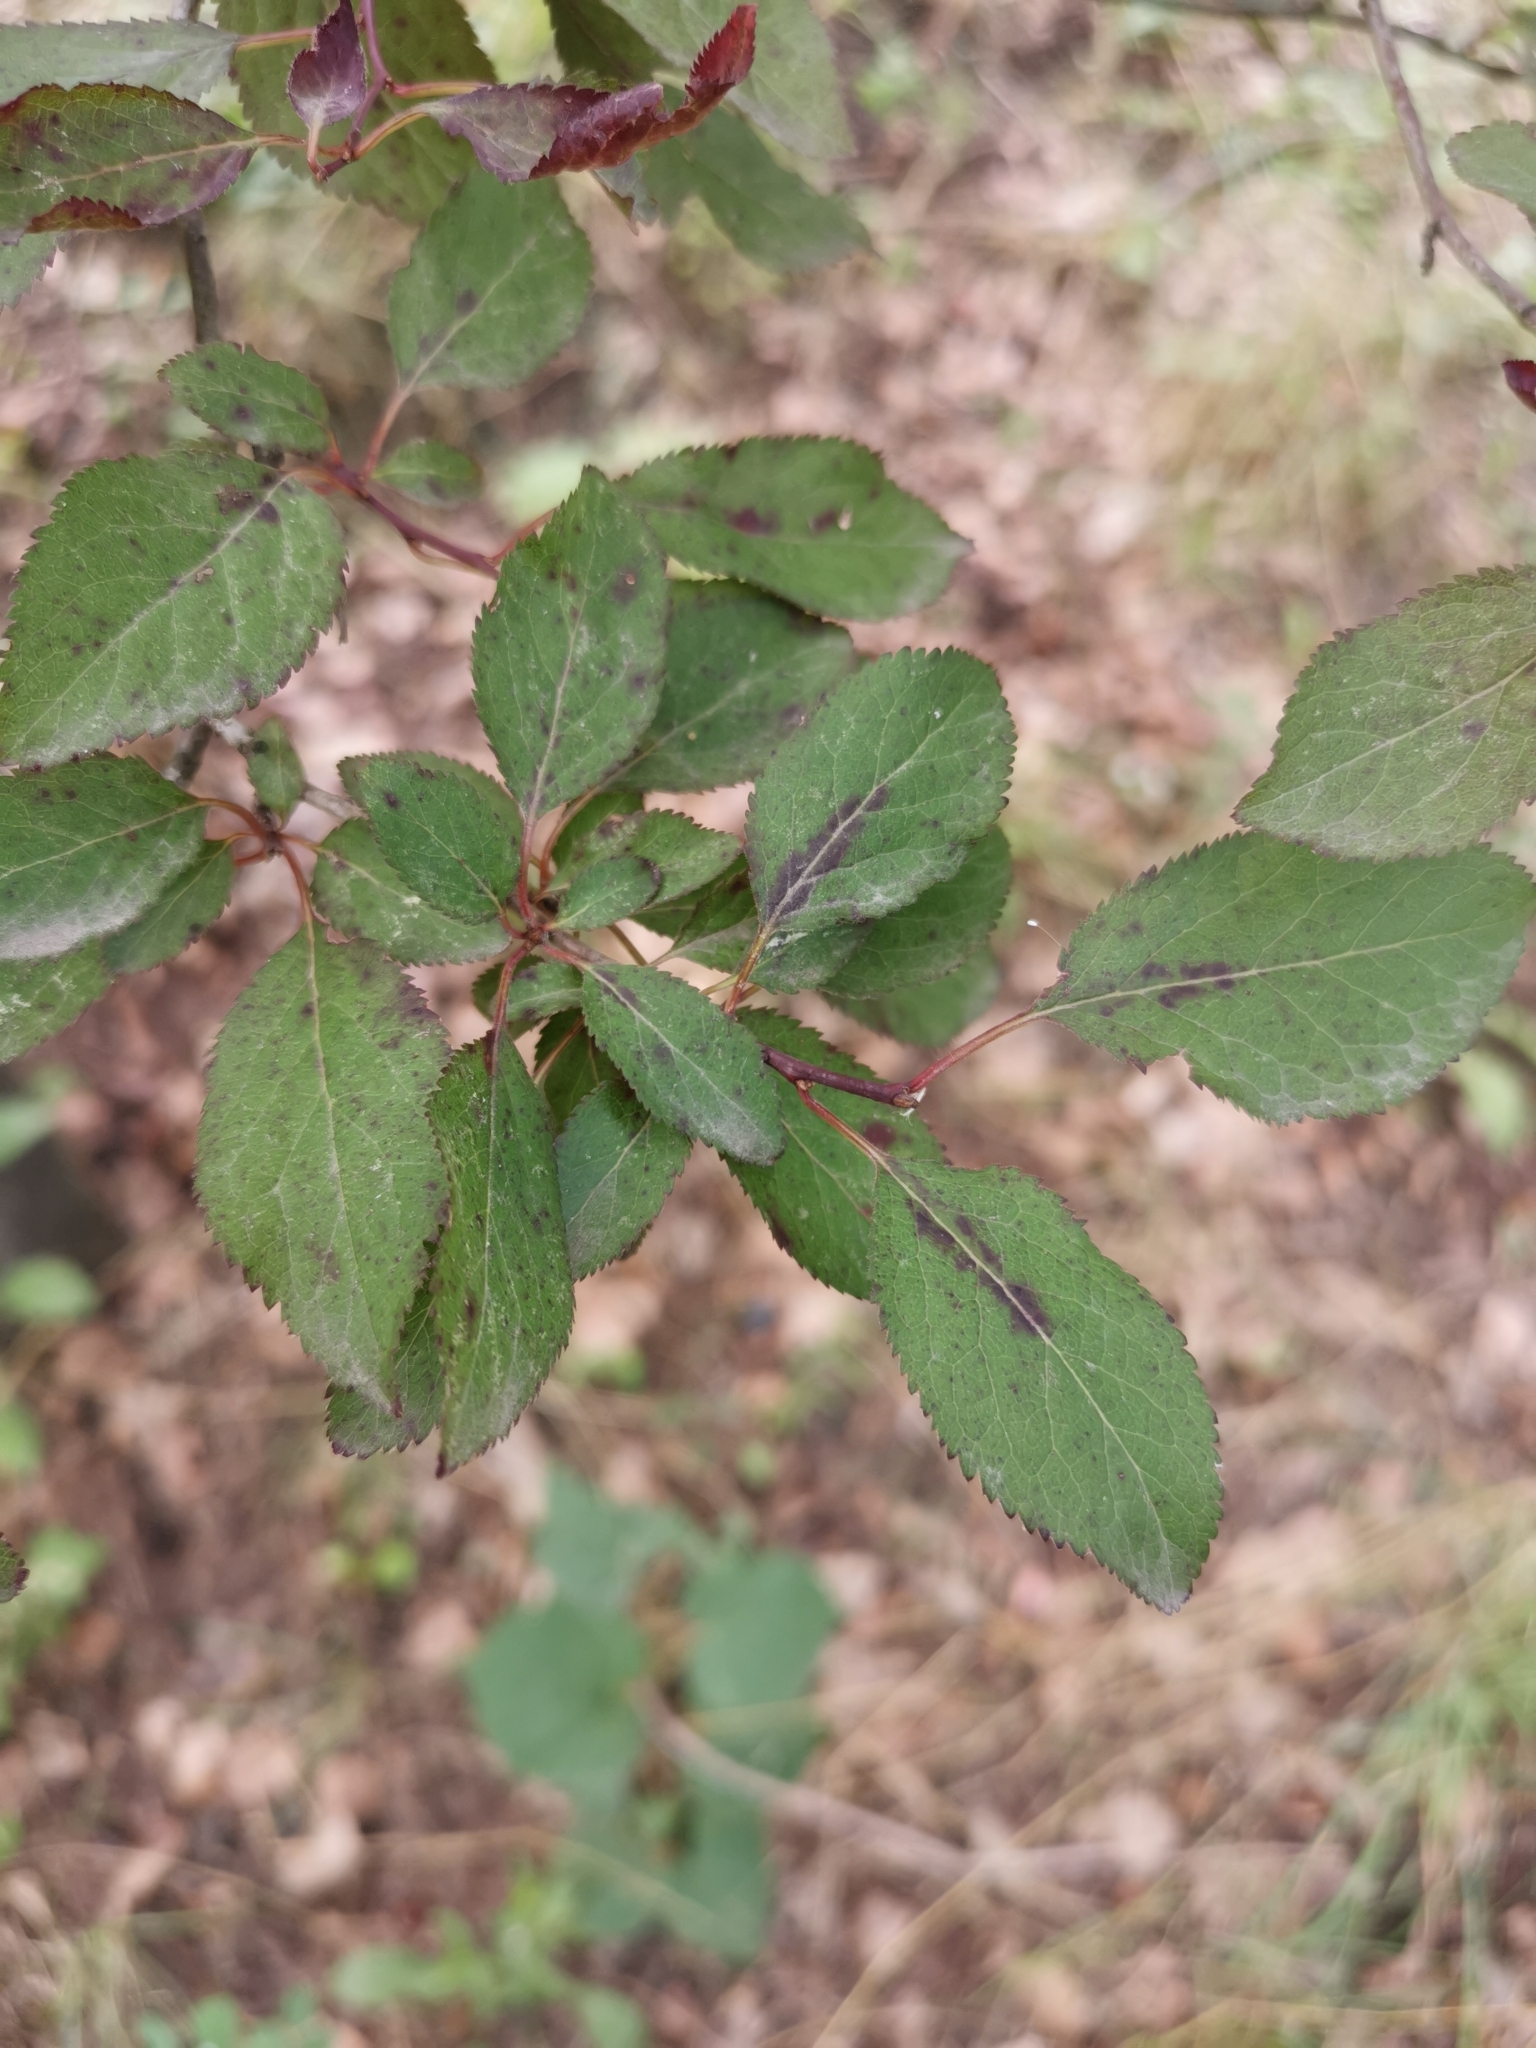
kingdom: Plantae
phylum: Tracheophyta
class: Magnoliopsida
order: Rosales
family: Rosaceae
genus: Prunus
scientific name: Prunus cerasifera
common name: Cherry plum
